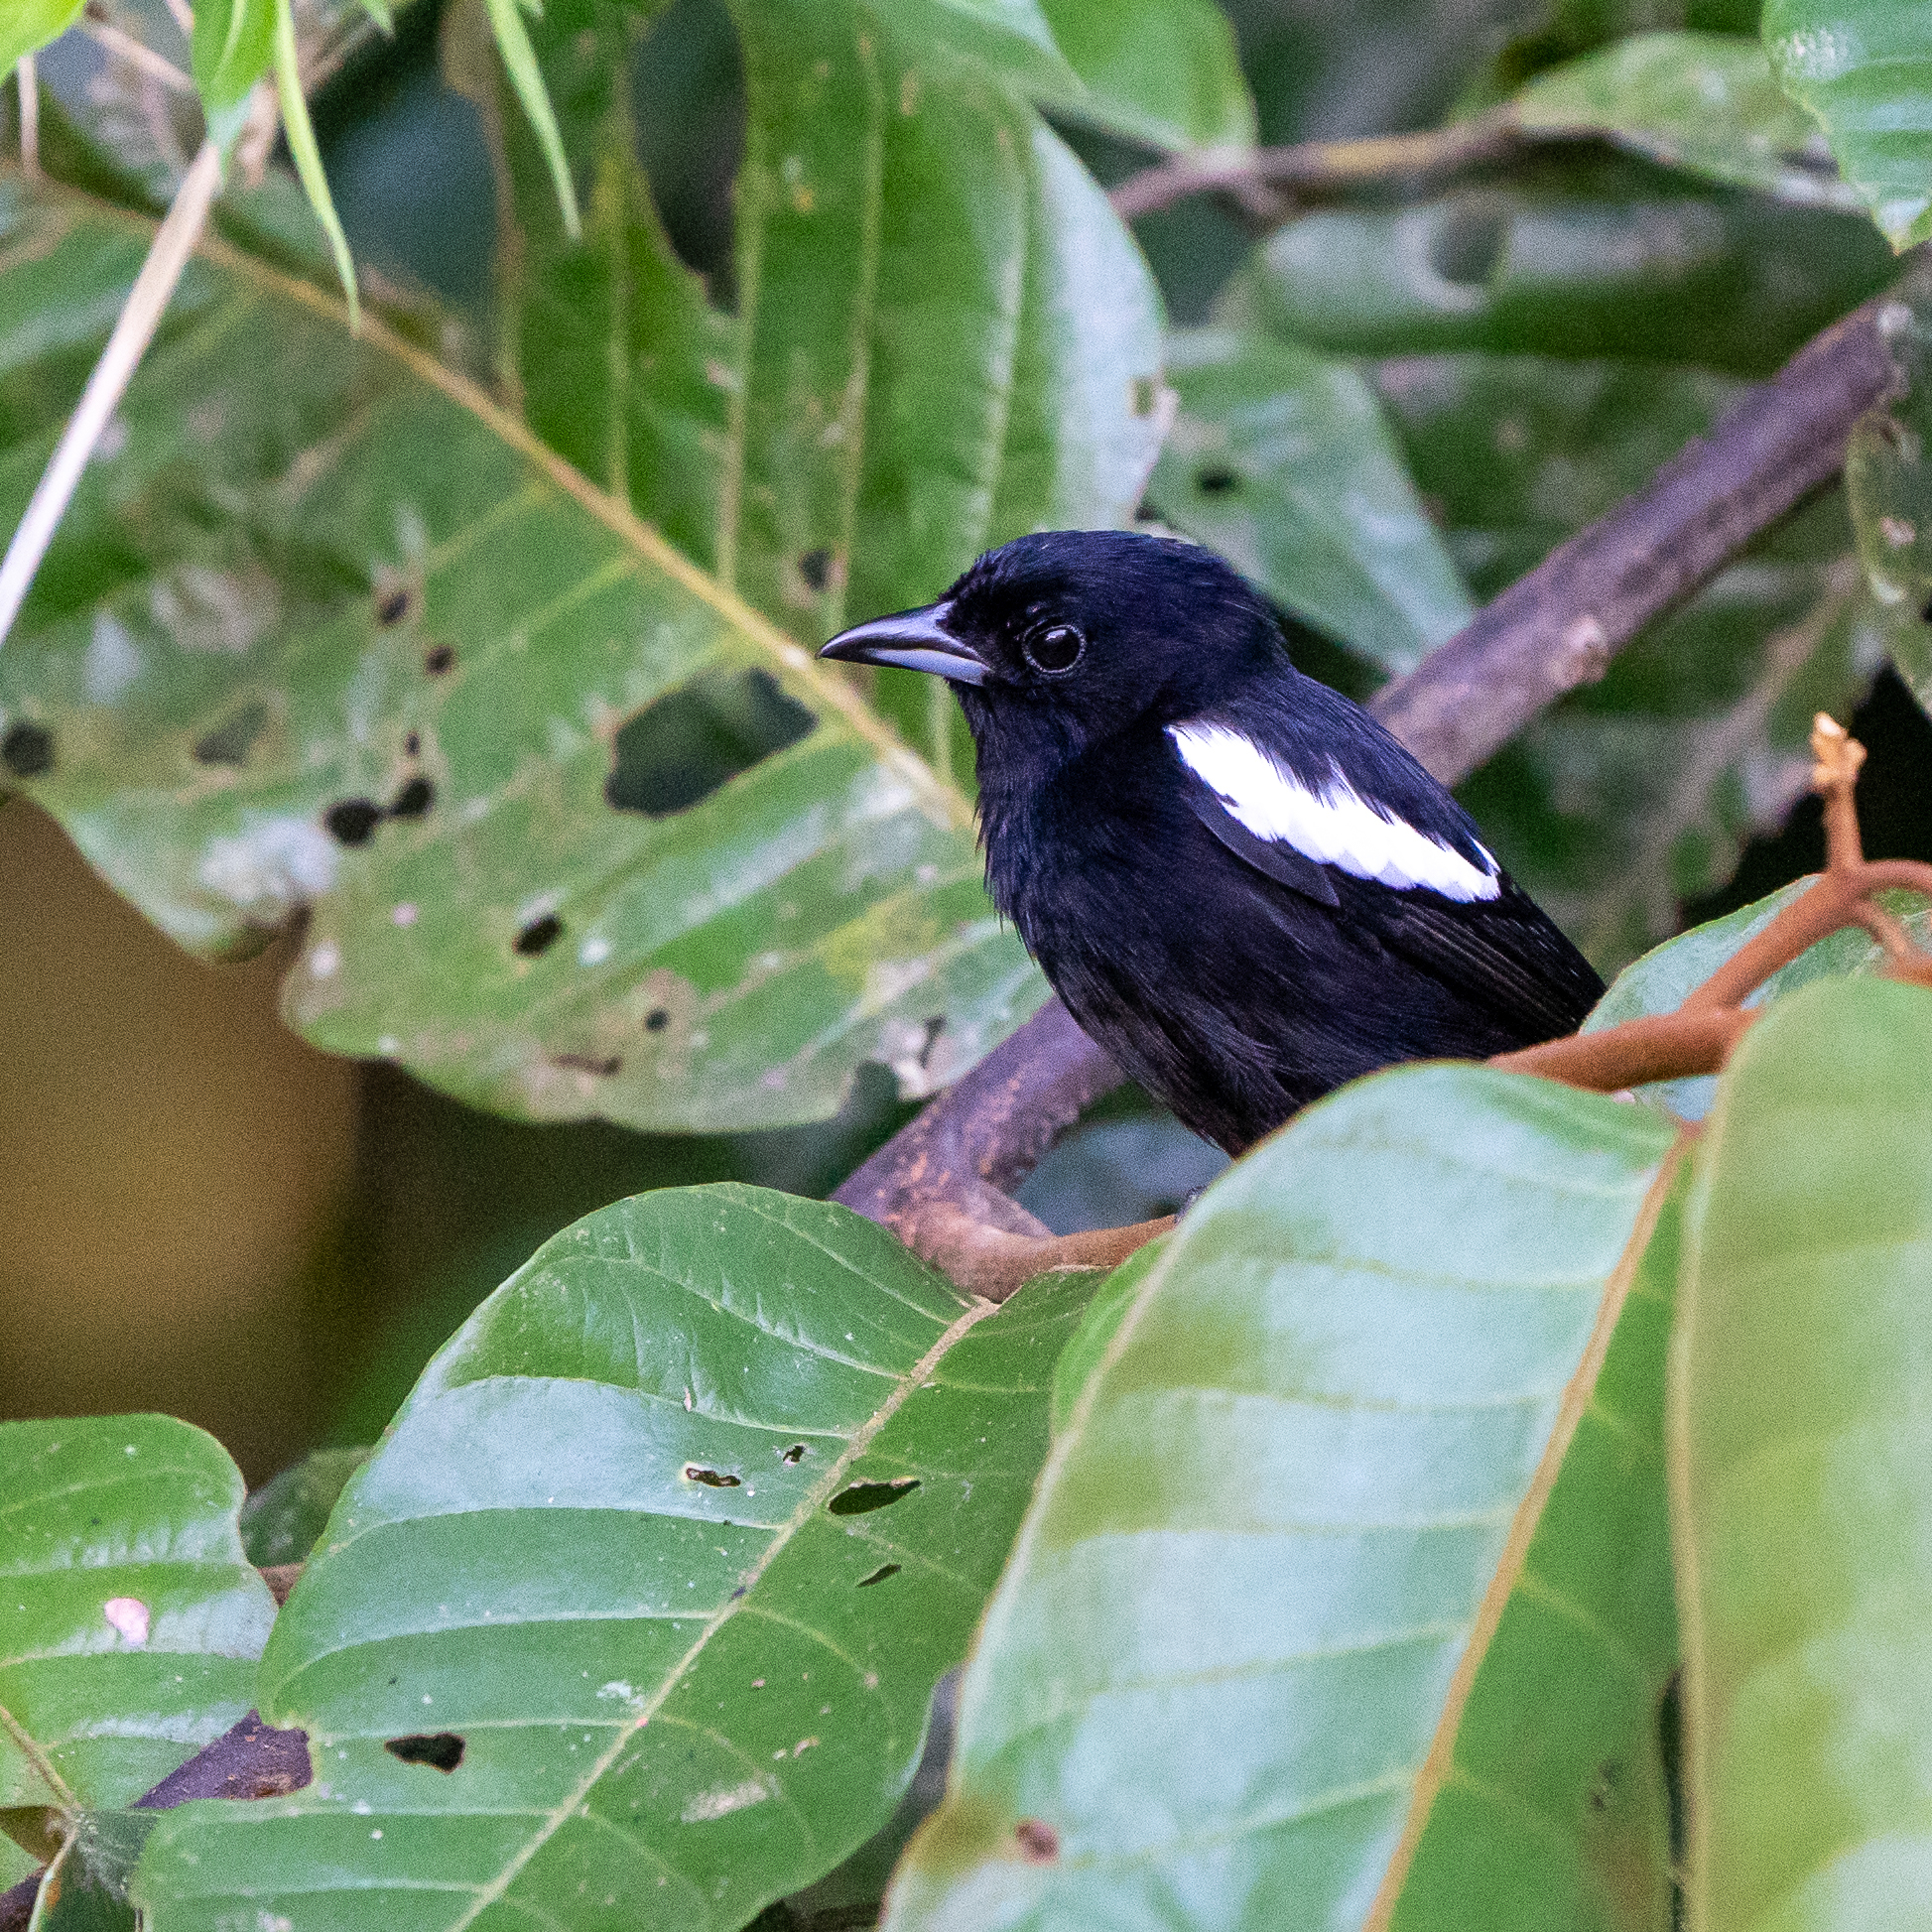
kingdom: Animalia
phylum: Chordata
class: Aves
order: Passeriformes
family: Thraupidae
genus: Loriotus
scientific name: Loriotus luctuosus
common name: White-shouldered tanager
